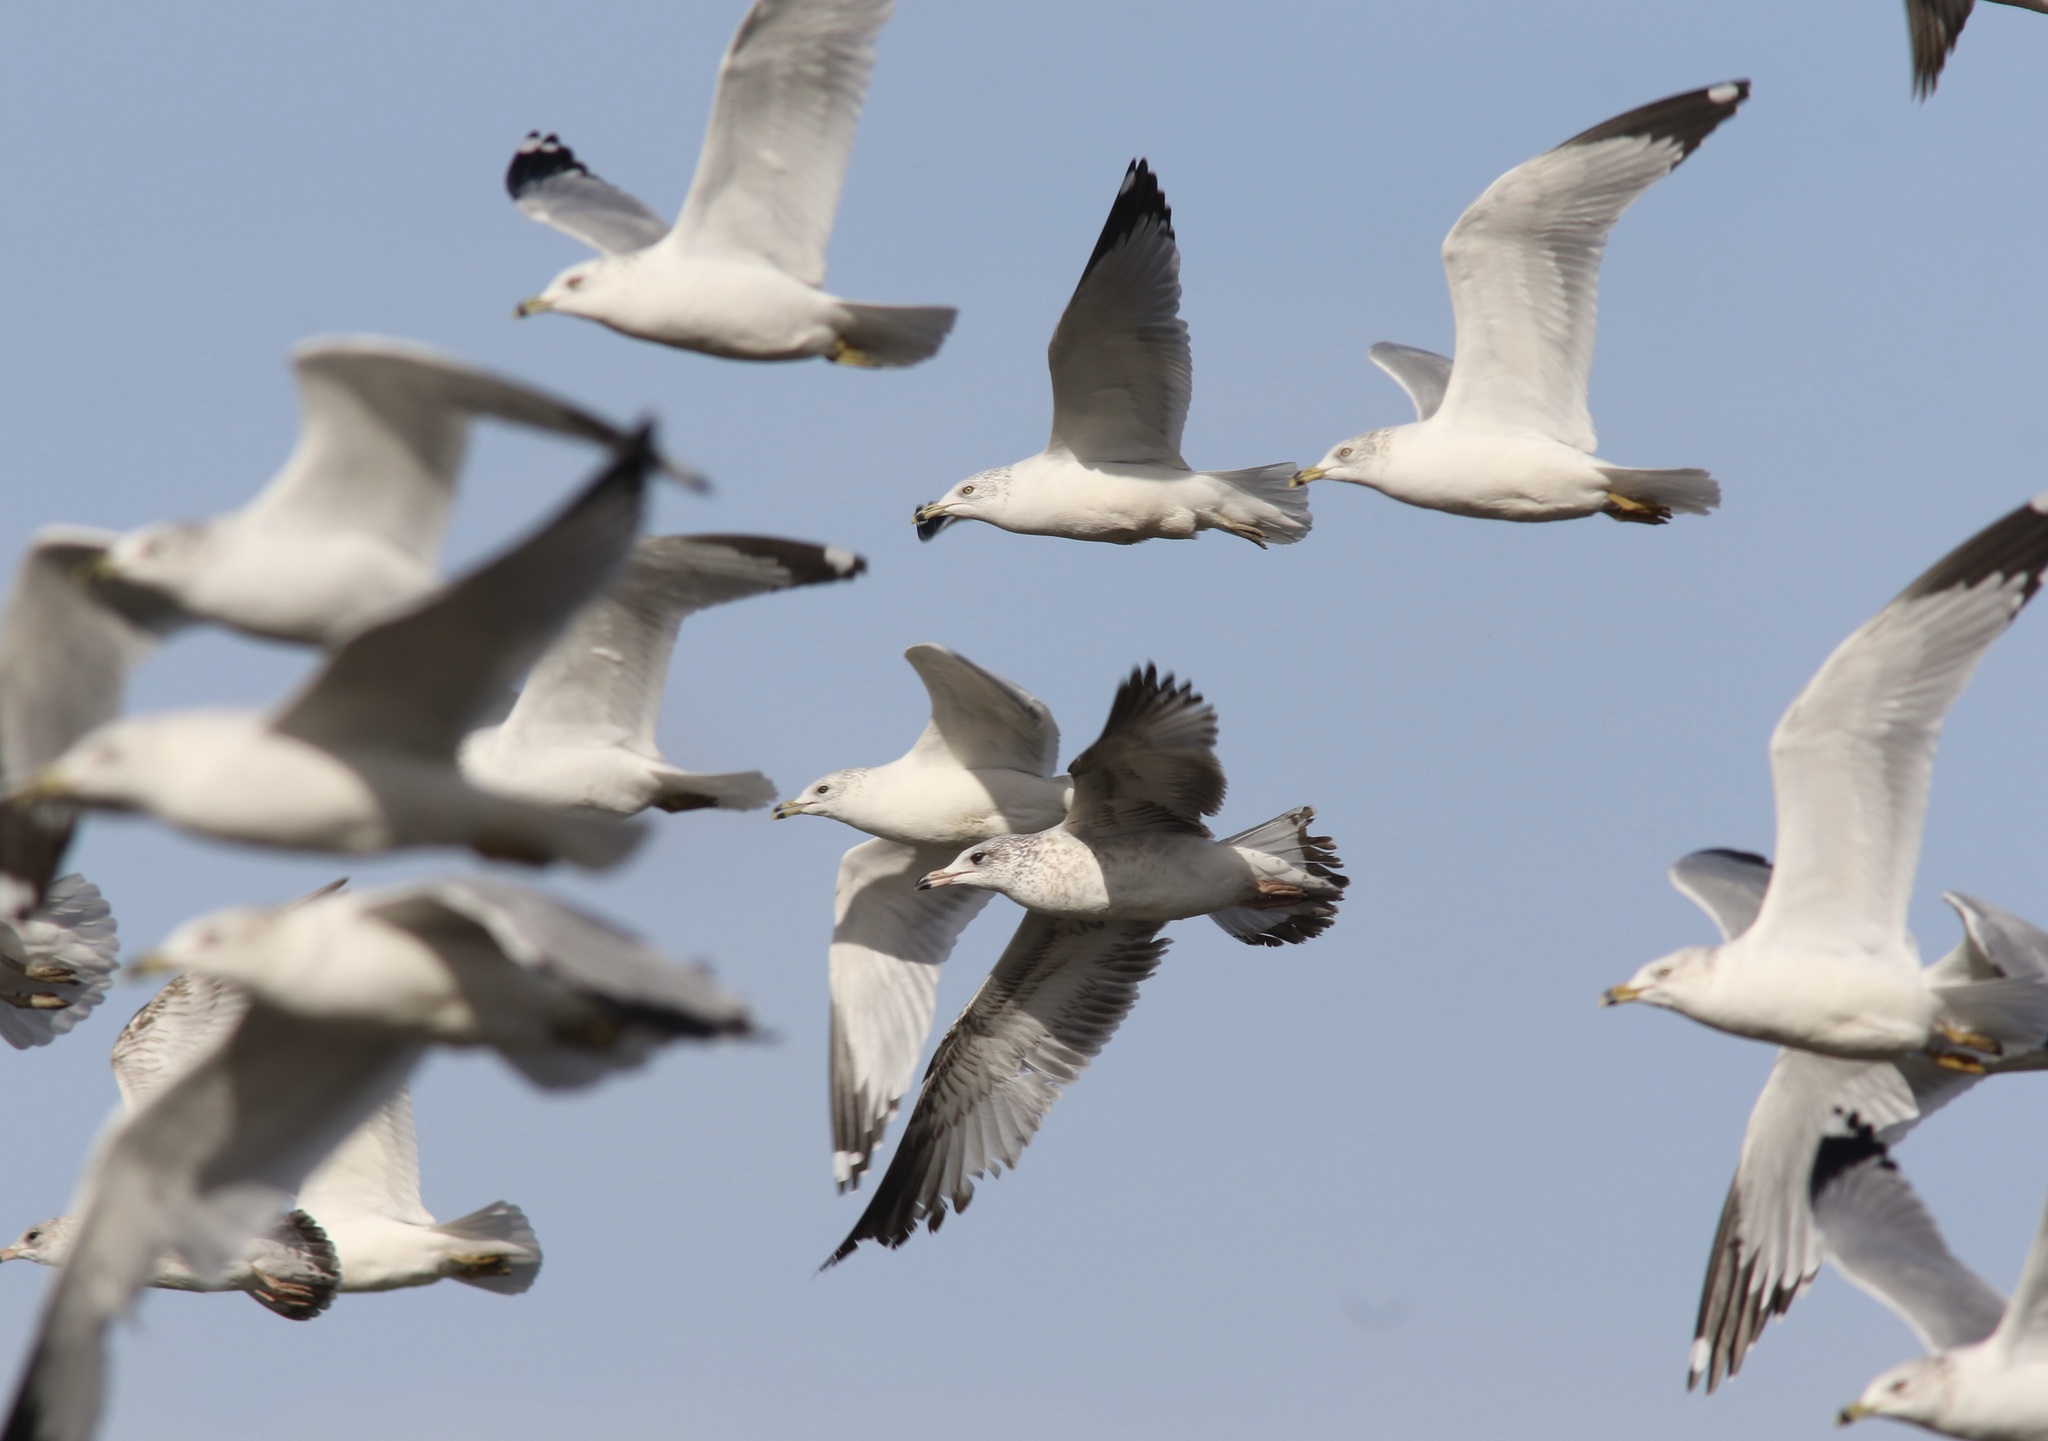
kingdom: Animalia
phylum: Chordata
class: Aves
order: Charadriiformes
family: Laridae
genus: Larus
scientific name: Larus delawarensis
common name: Ring-billed gull
